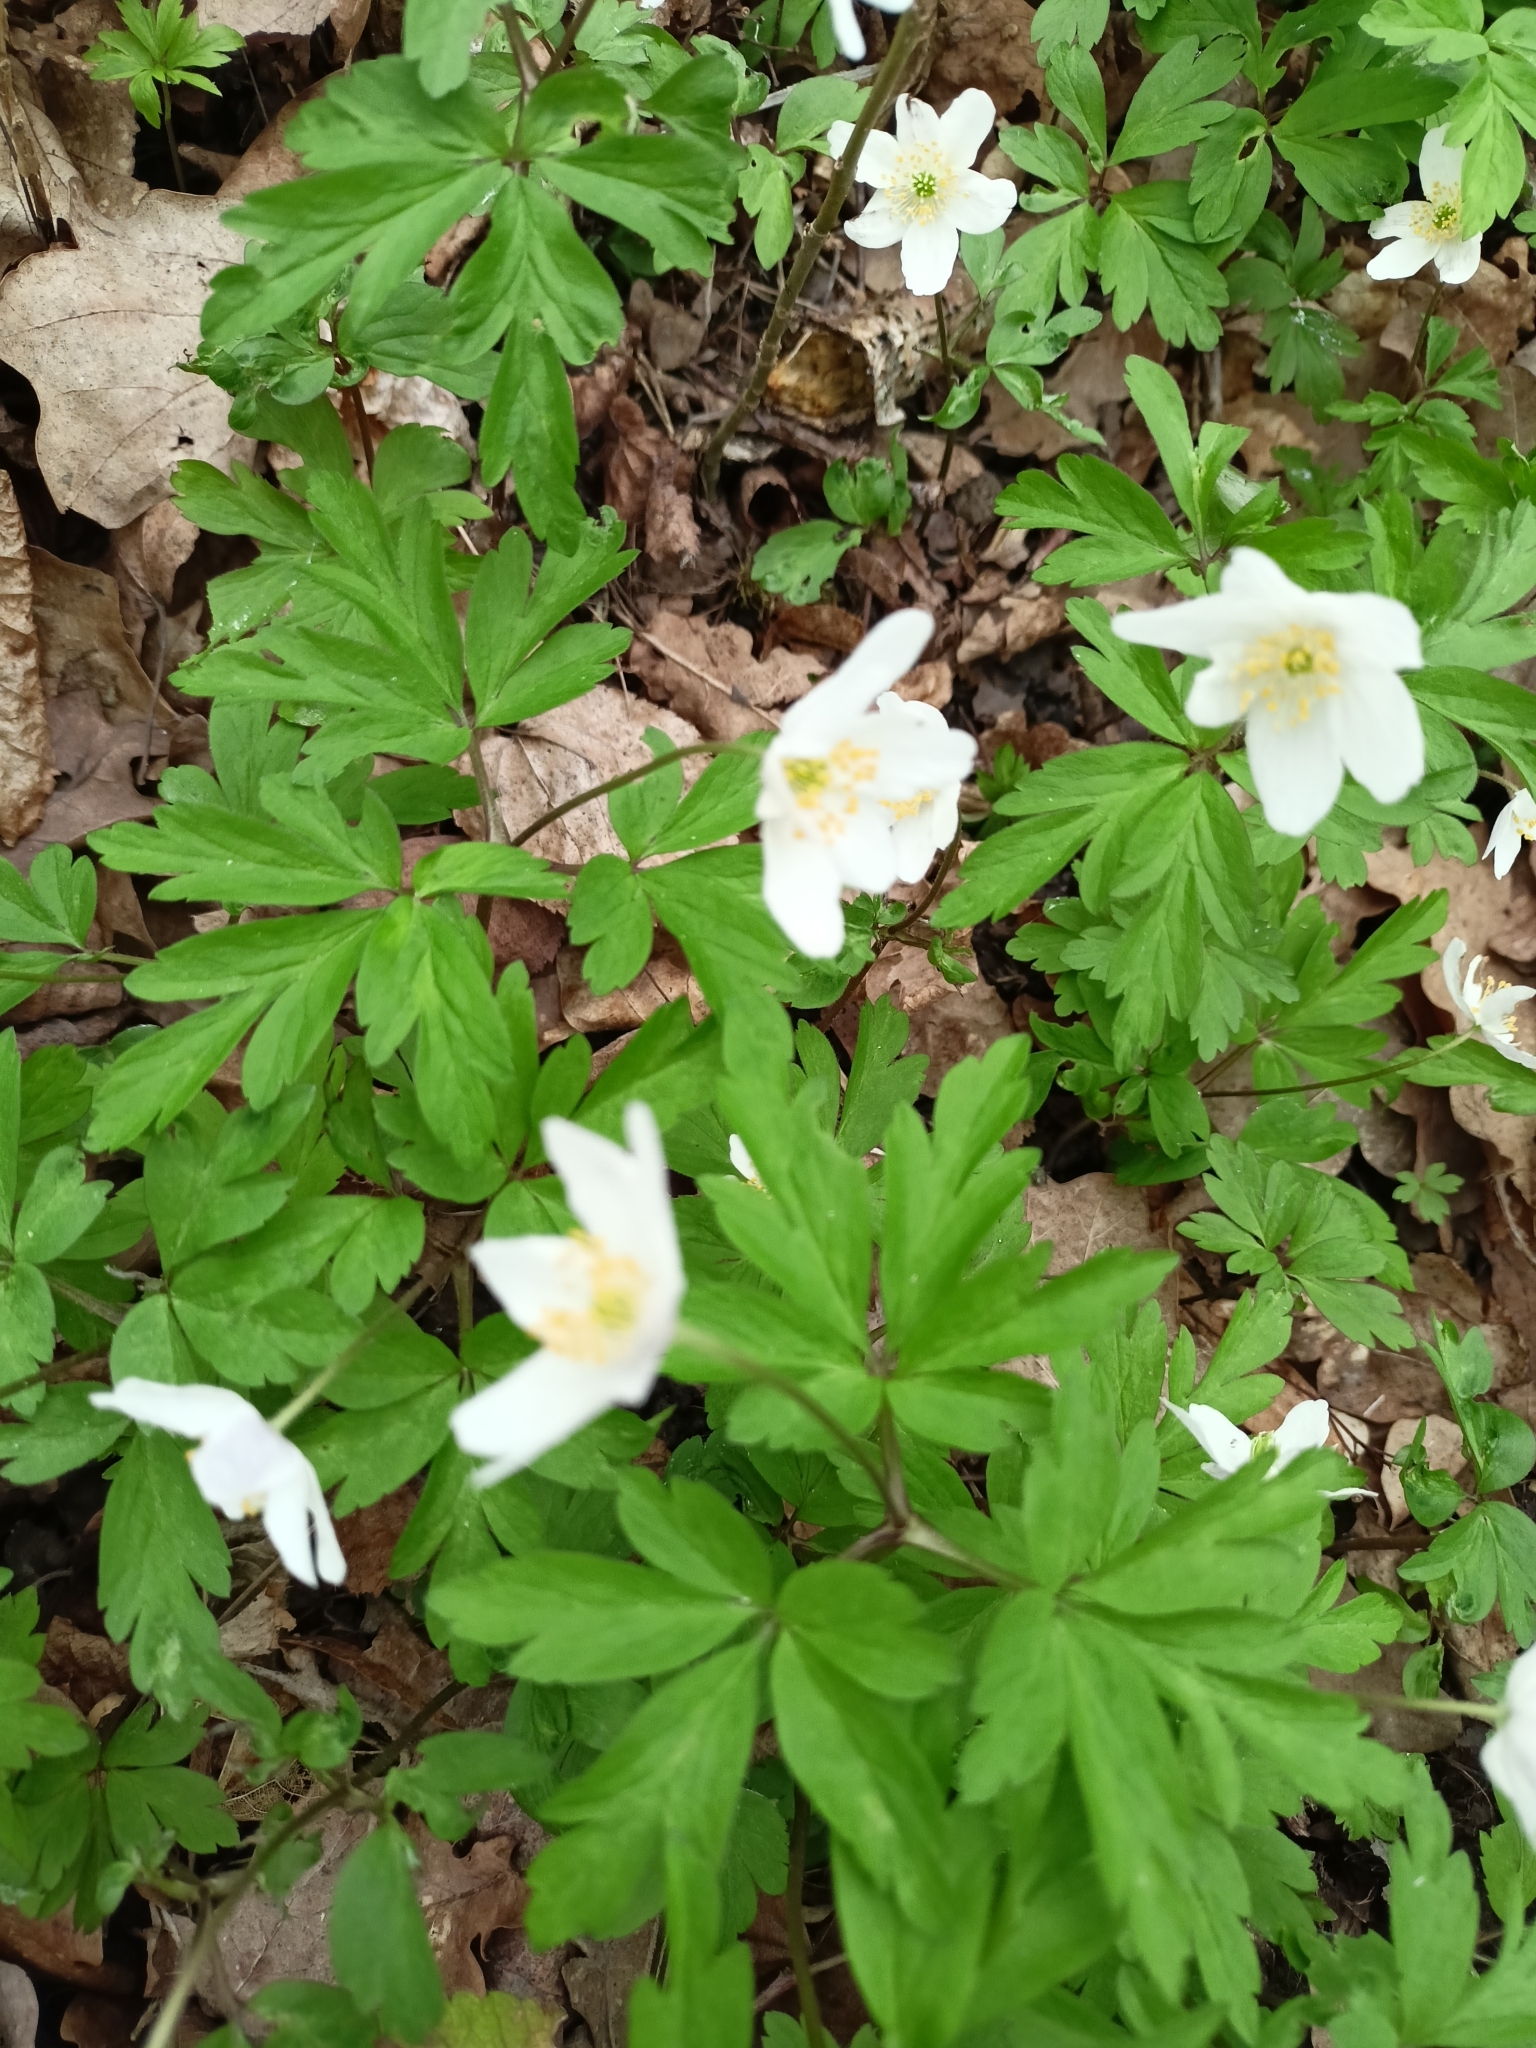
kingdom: Plantae
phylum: Tracheophyta
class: Magnoliopsida
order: Ranunculales
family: Ranunculaceae
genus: Anemone
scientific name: Anemone nemorosa
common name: Wood anemone
